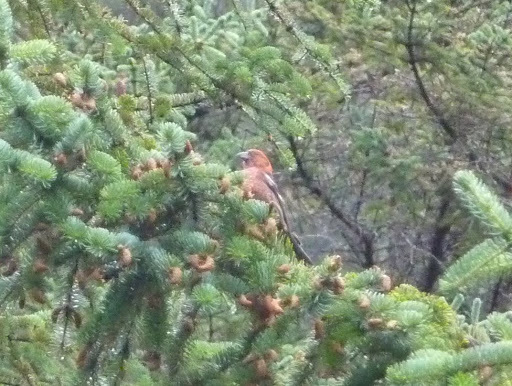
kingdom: Animalia
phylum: Chordata
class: Aves
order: Passeriformes
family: Fringillidae
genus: Loxia
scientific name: Loxia leucoptera
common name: Two-barred crossbill
